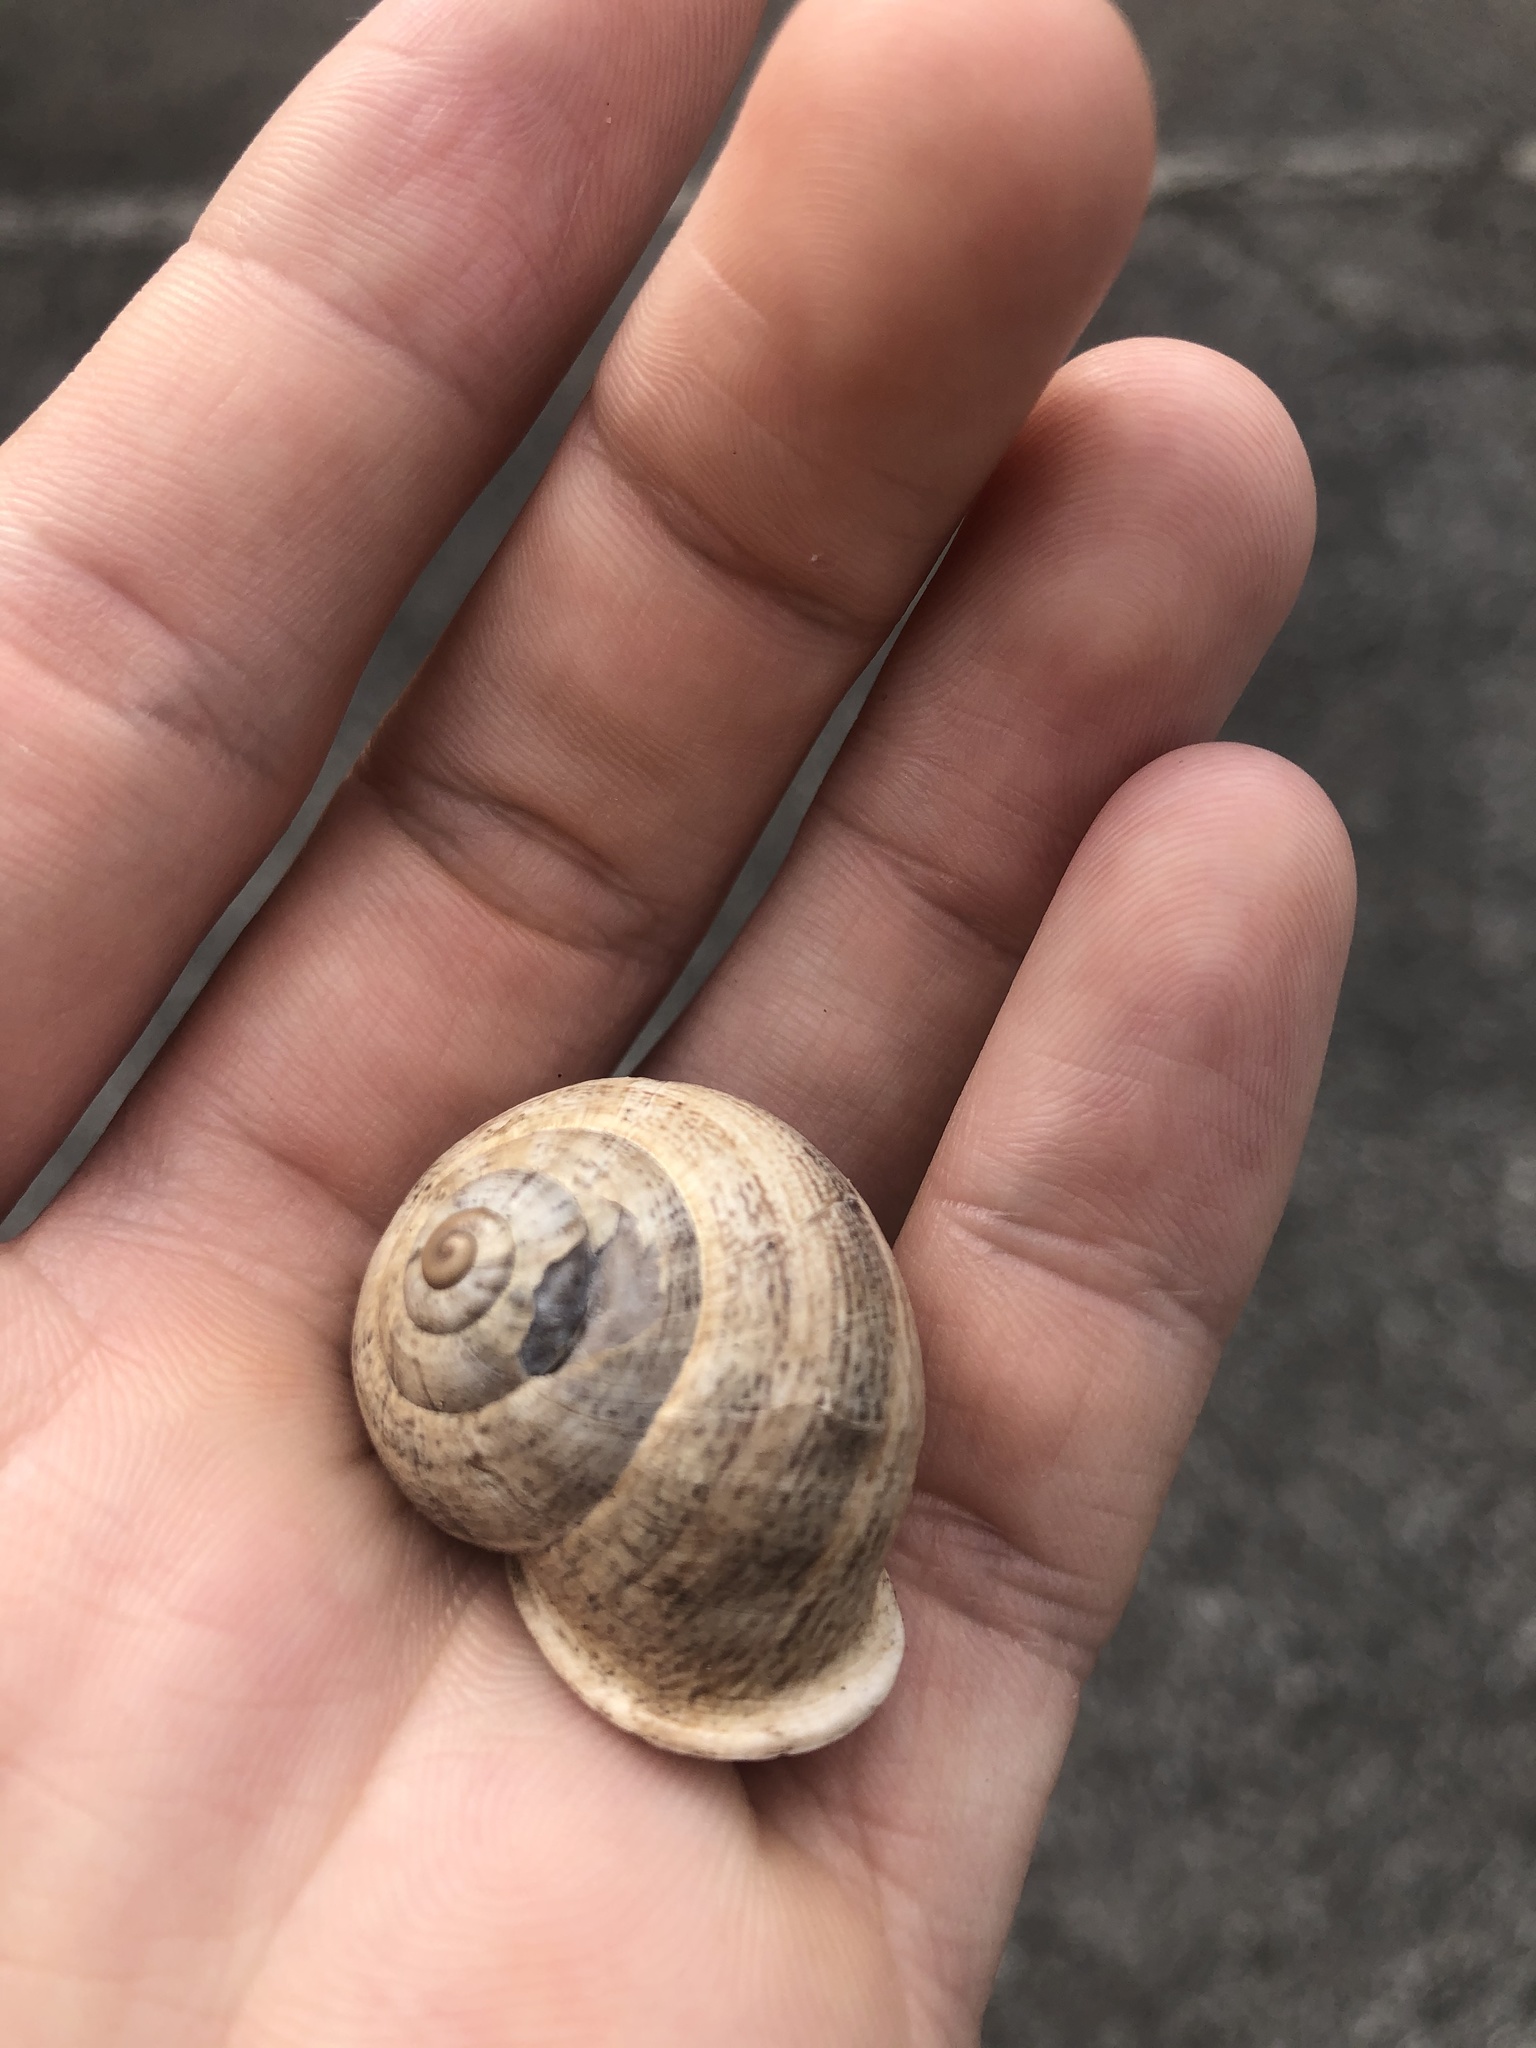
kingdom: Animalia
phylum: Mollusca
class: Gastropoda
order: Stylommatophora
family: Helicidae
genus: Otala
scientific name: Otala lactea
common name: Milk snail
